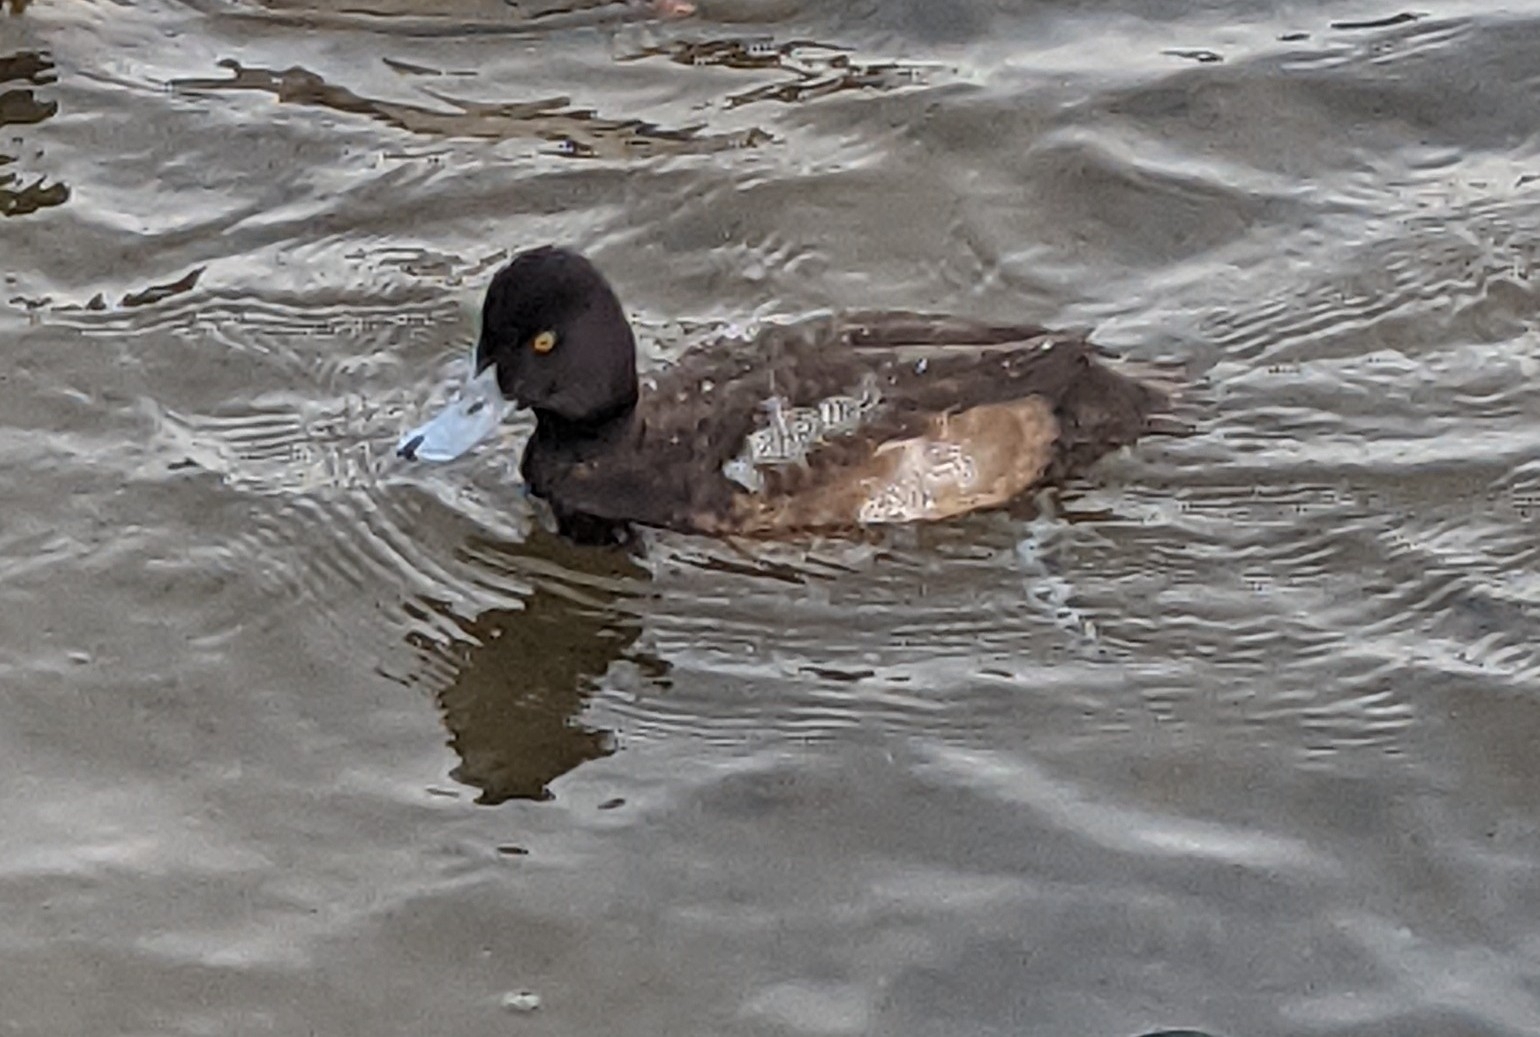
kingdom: Animalia
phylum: Chordata
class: Aves
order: Anseriformes
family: Anatidae
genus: Aythya
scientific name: Aythya affinis
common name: Lesser scaup
